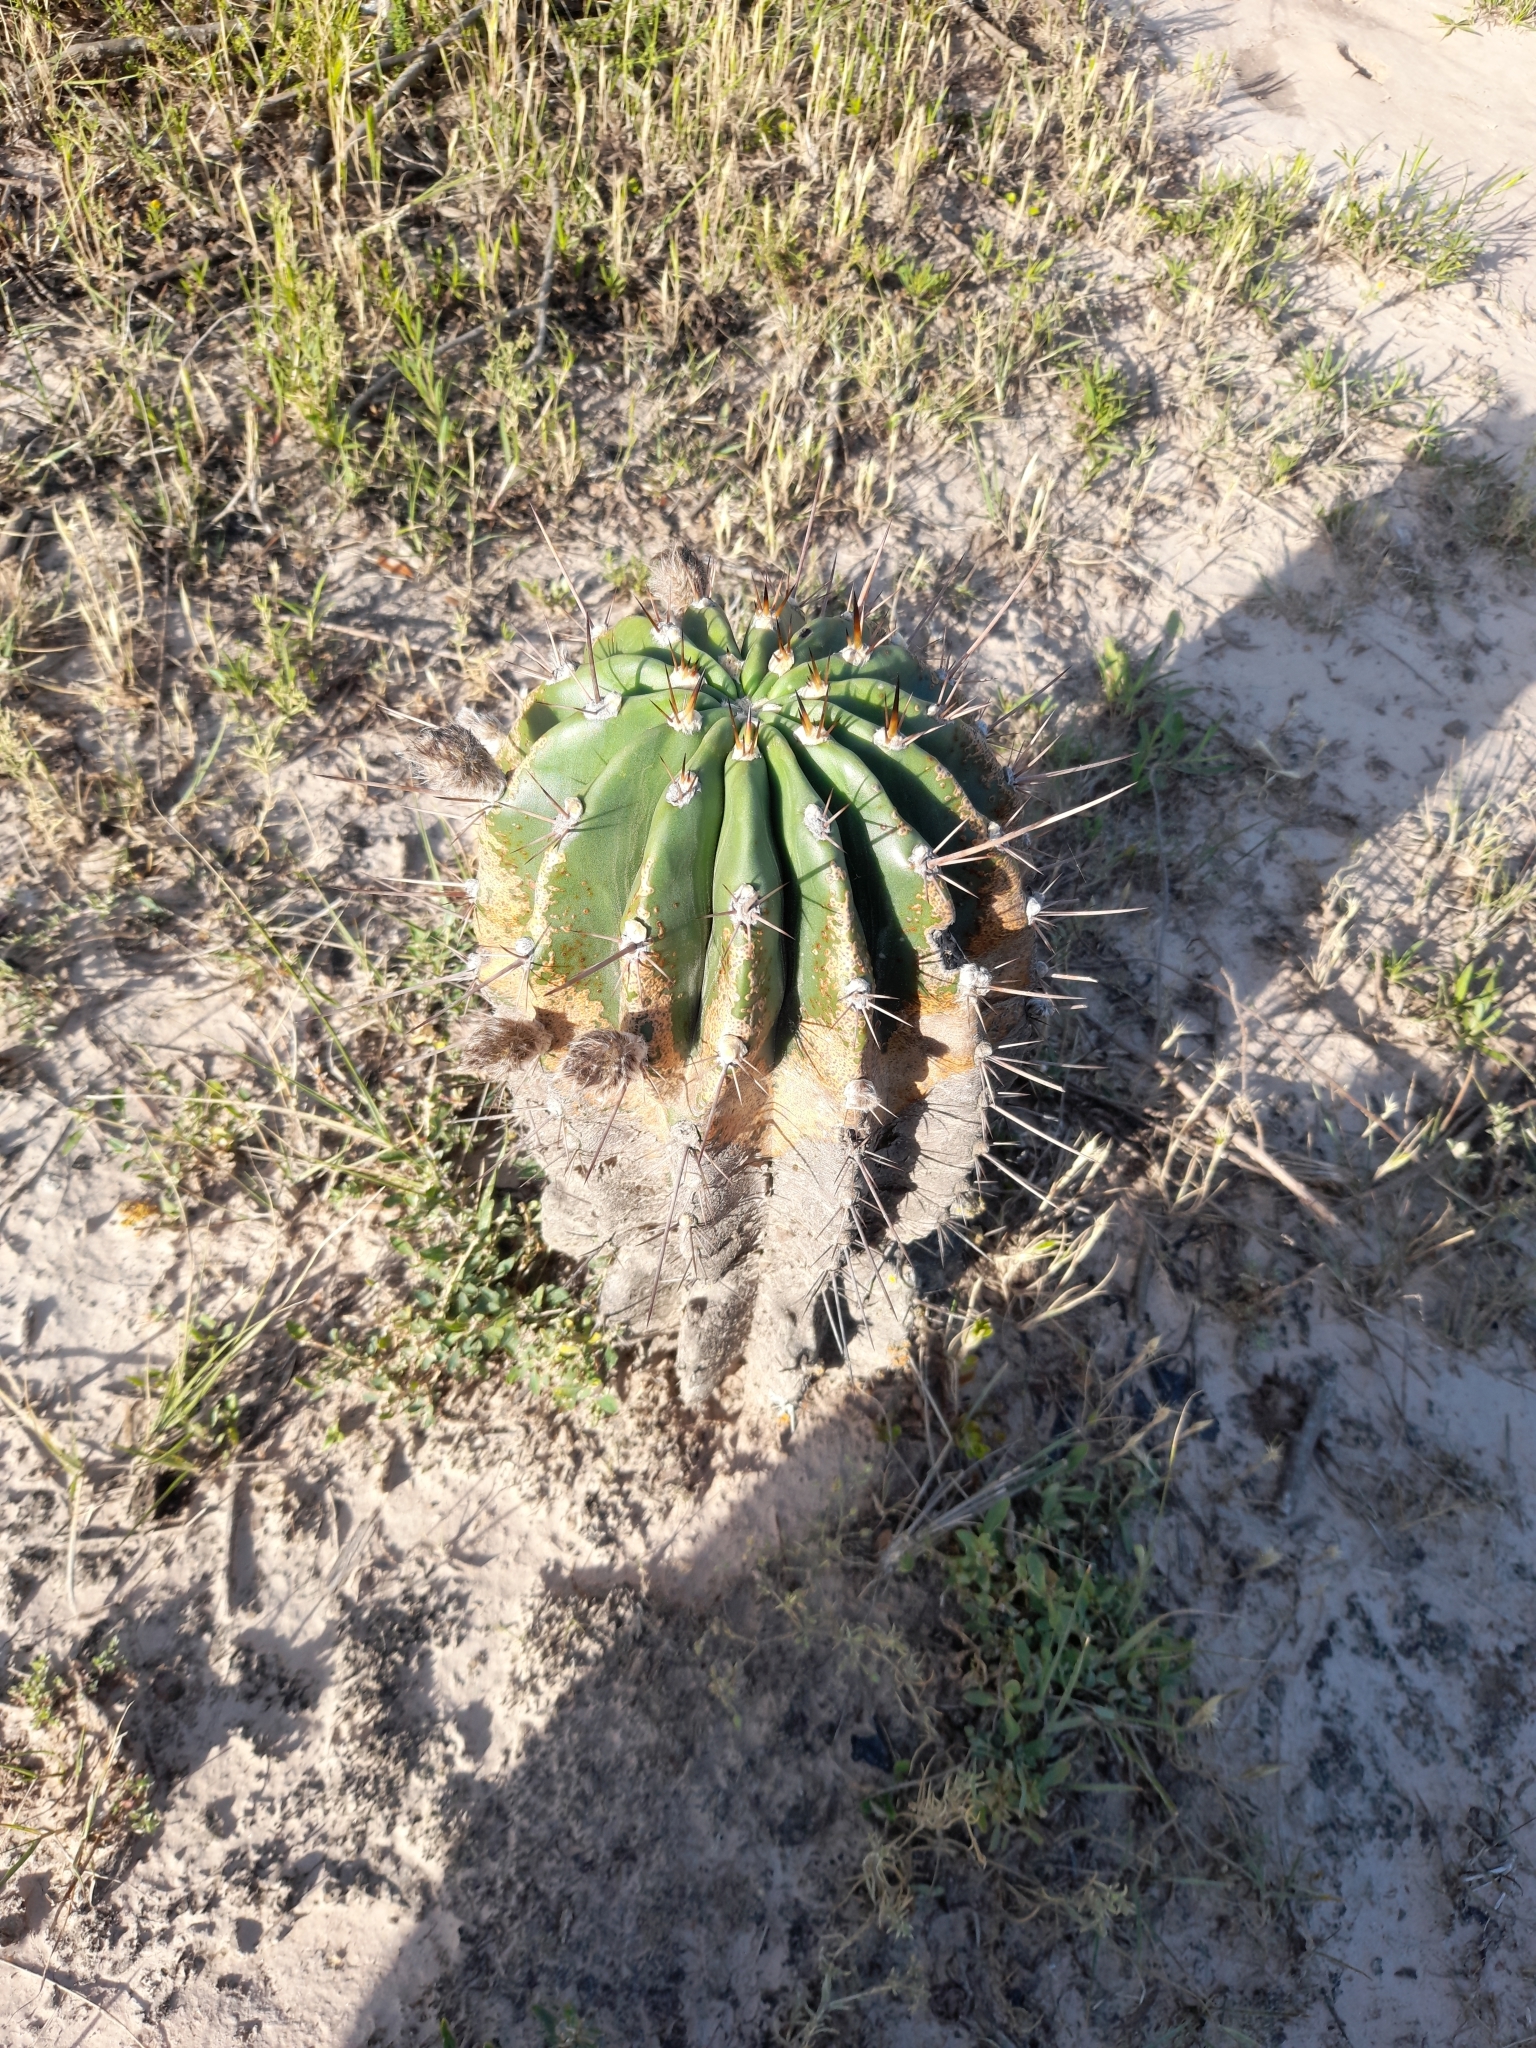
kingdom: Plantae
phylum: Tracheophyta
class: Magnoliopsida
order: Caryophyllales
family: Cactaceae
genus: Acanthocalycium
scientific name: Acanthocalycium rhodotrichum
